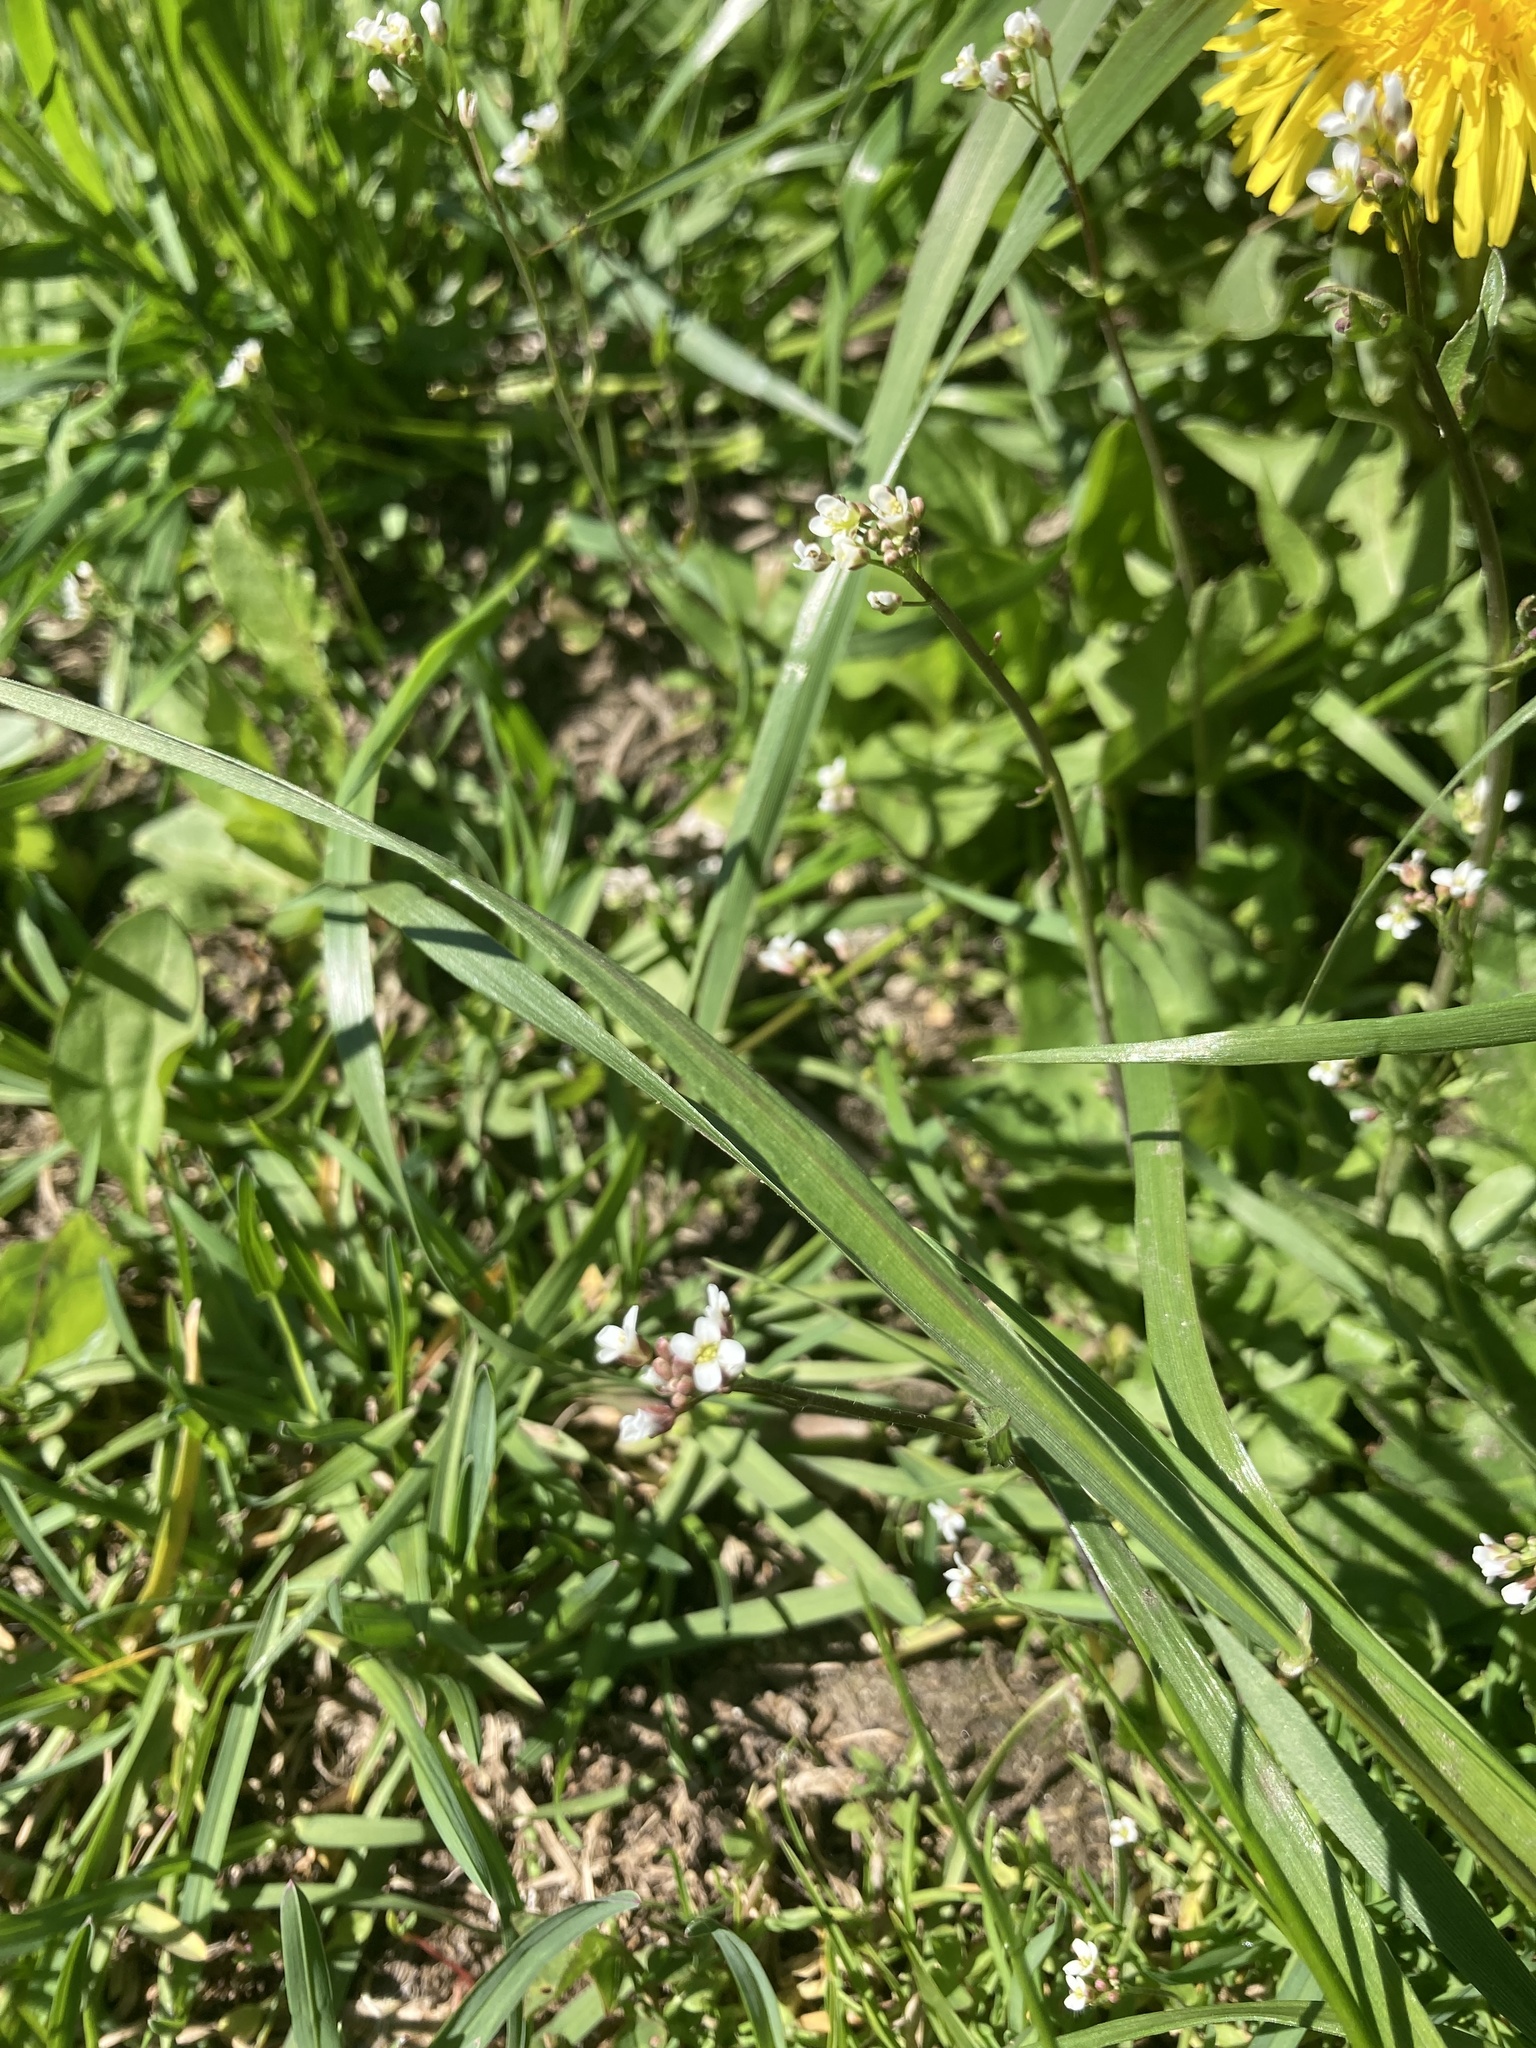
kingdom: Plantae
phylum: Tracheophyta
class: Magnoliopsida
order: Brassicales
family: Brassicaceae
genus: Capsella
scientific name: Capsella bursa-pastoris
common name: Shepherd's purse
